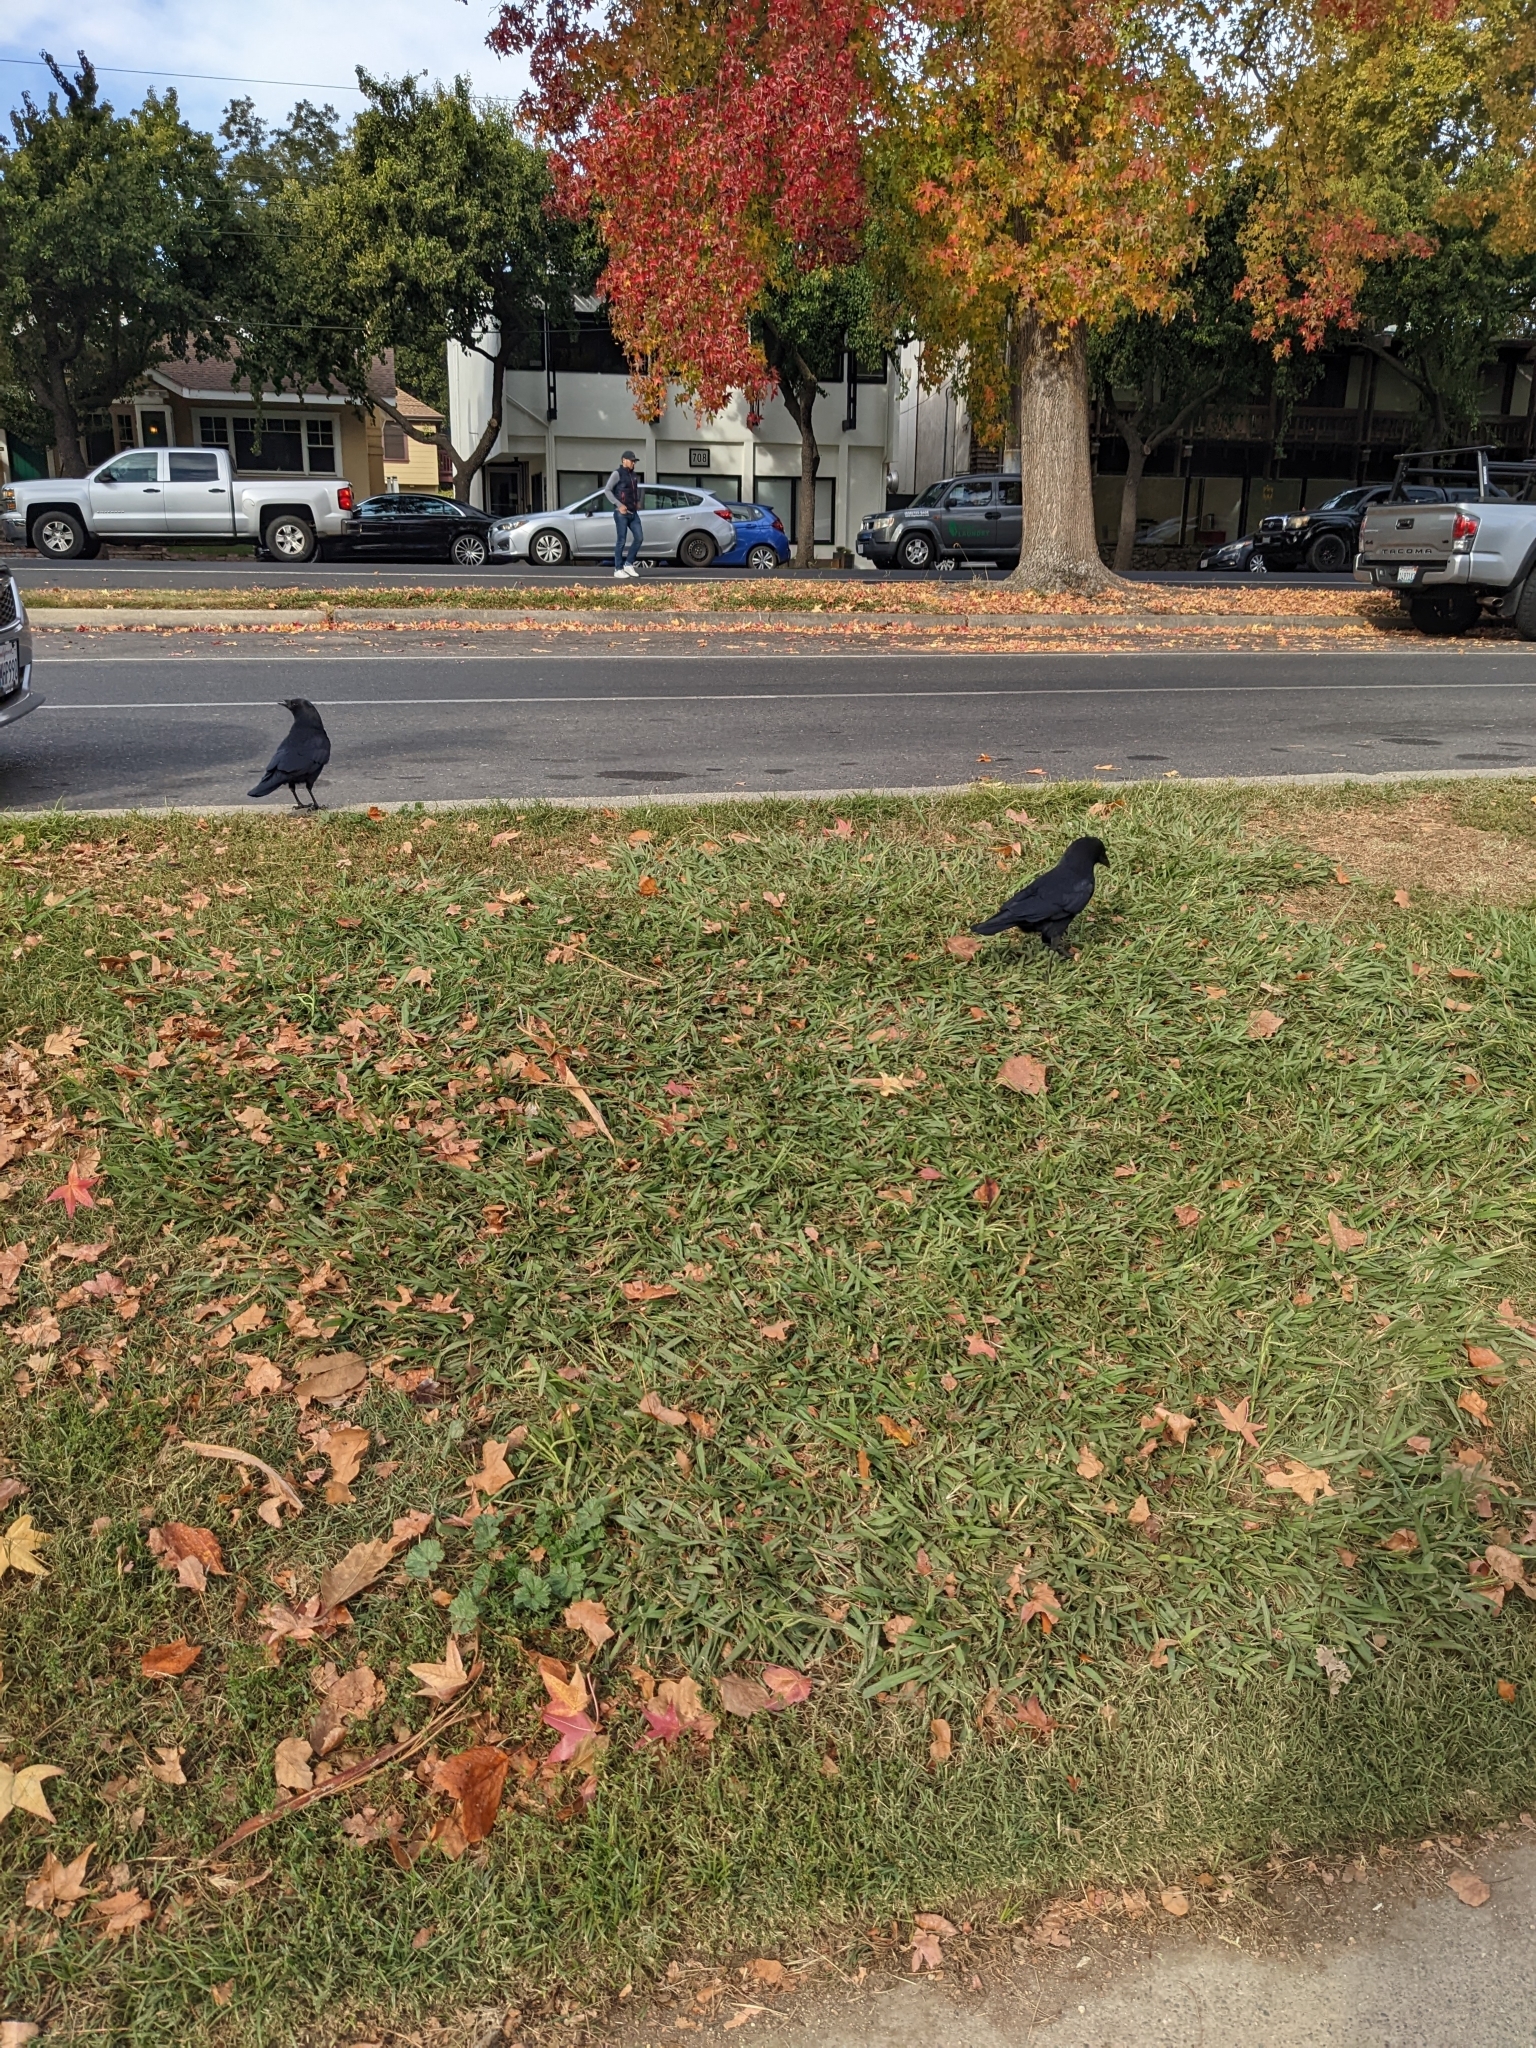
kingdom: Animalia
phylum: Chordata
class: Aves
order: Passeriformes
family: Corvidae
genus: Corvus
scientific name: Corvus brachyrhynchos
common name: American crow
